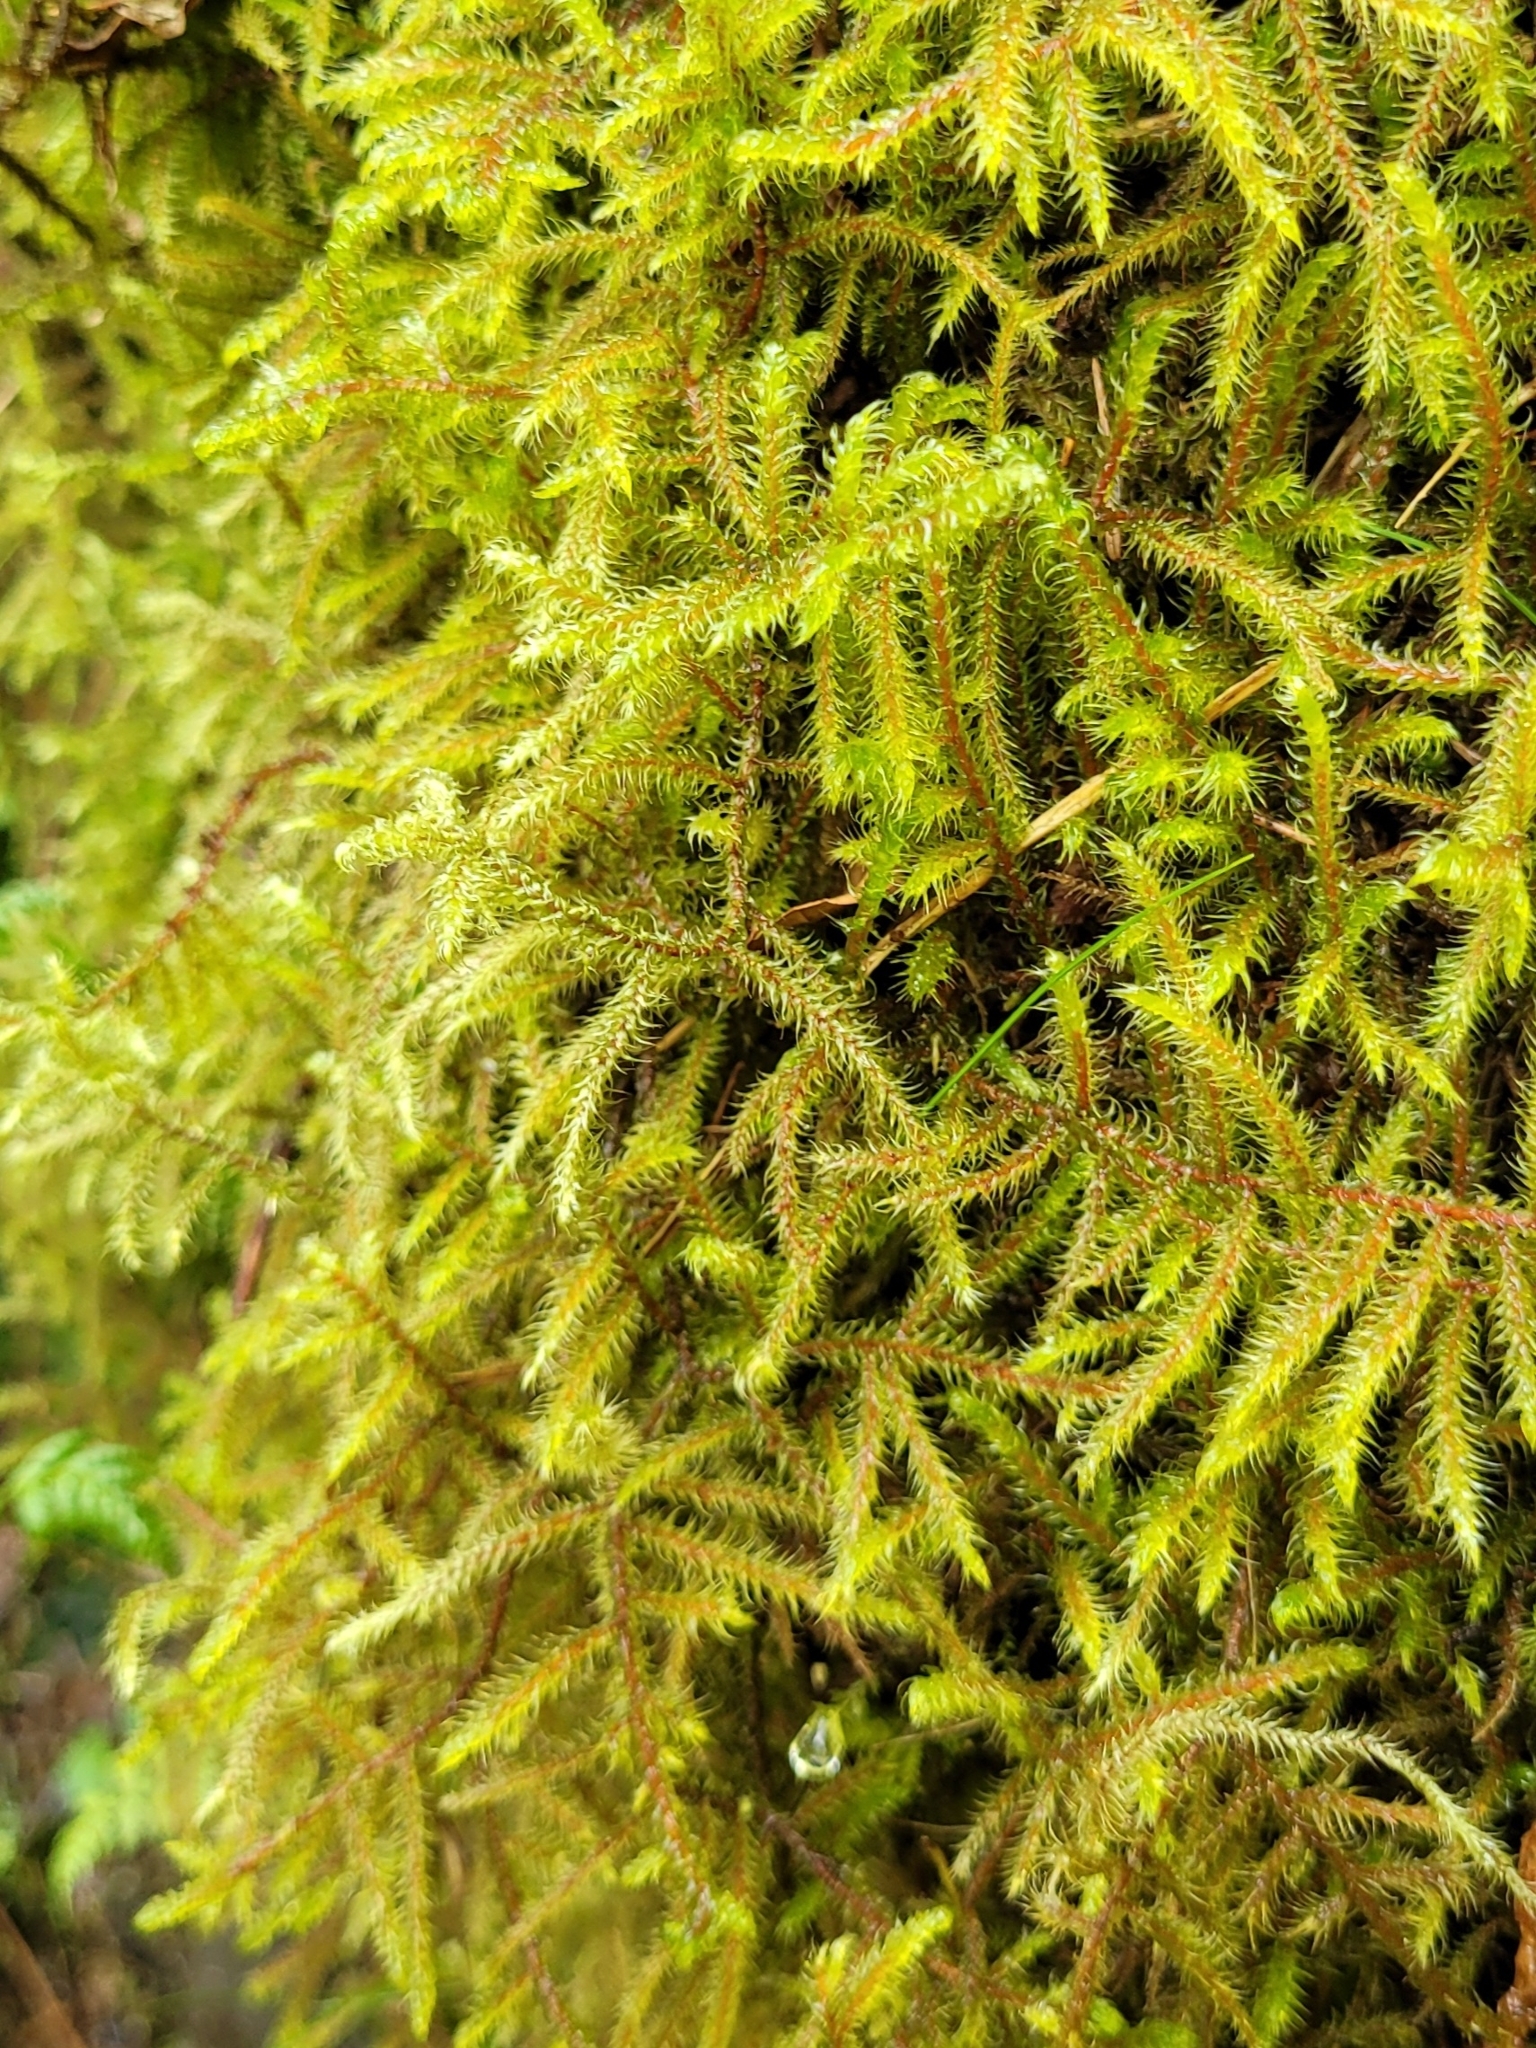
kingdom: Plantae
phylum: Bryophyta
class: Bryopsida
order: Hypnales
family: Hylocomiaceae
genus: Rhytidiadelphus
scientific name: Rhytidiadelphus loreus
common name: Lanky moss
